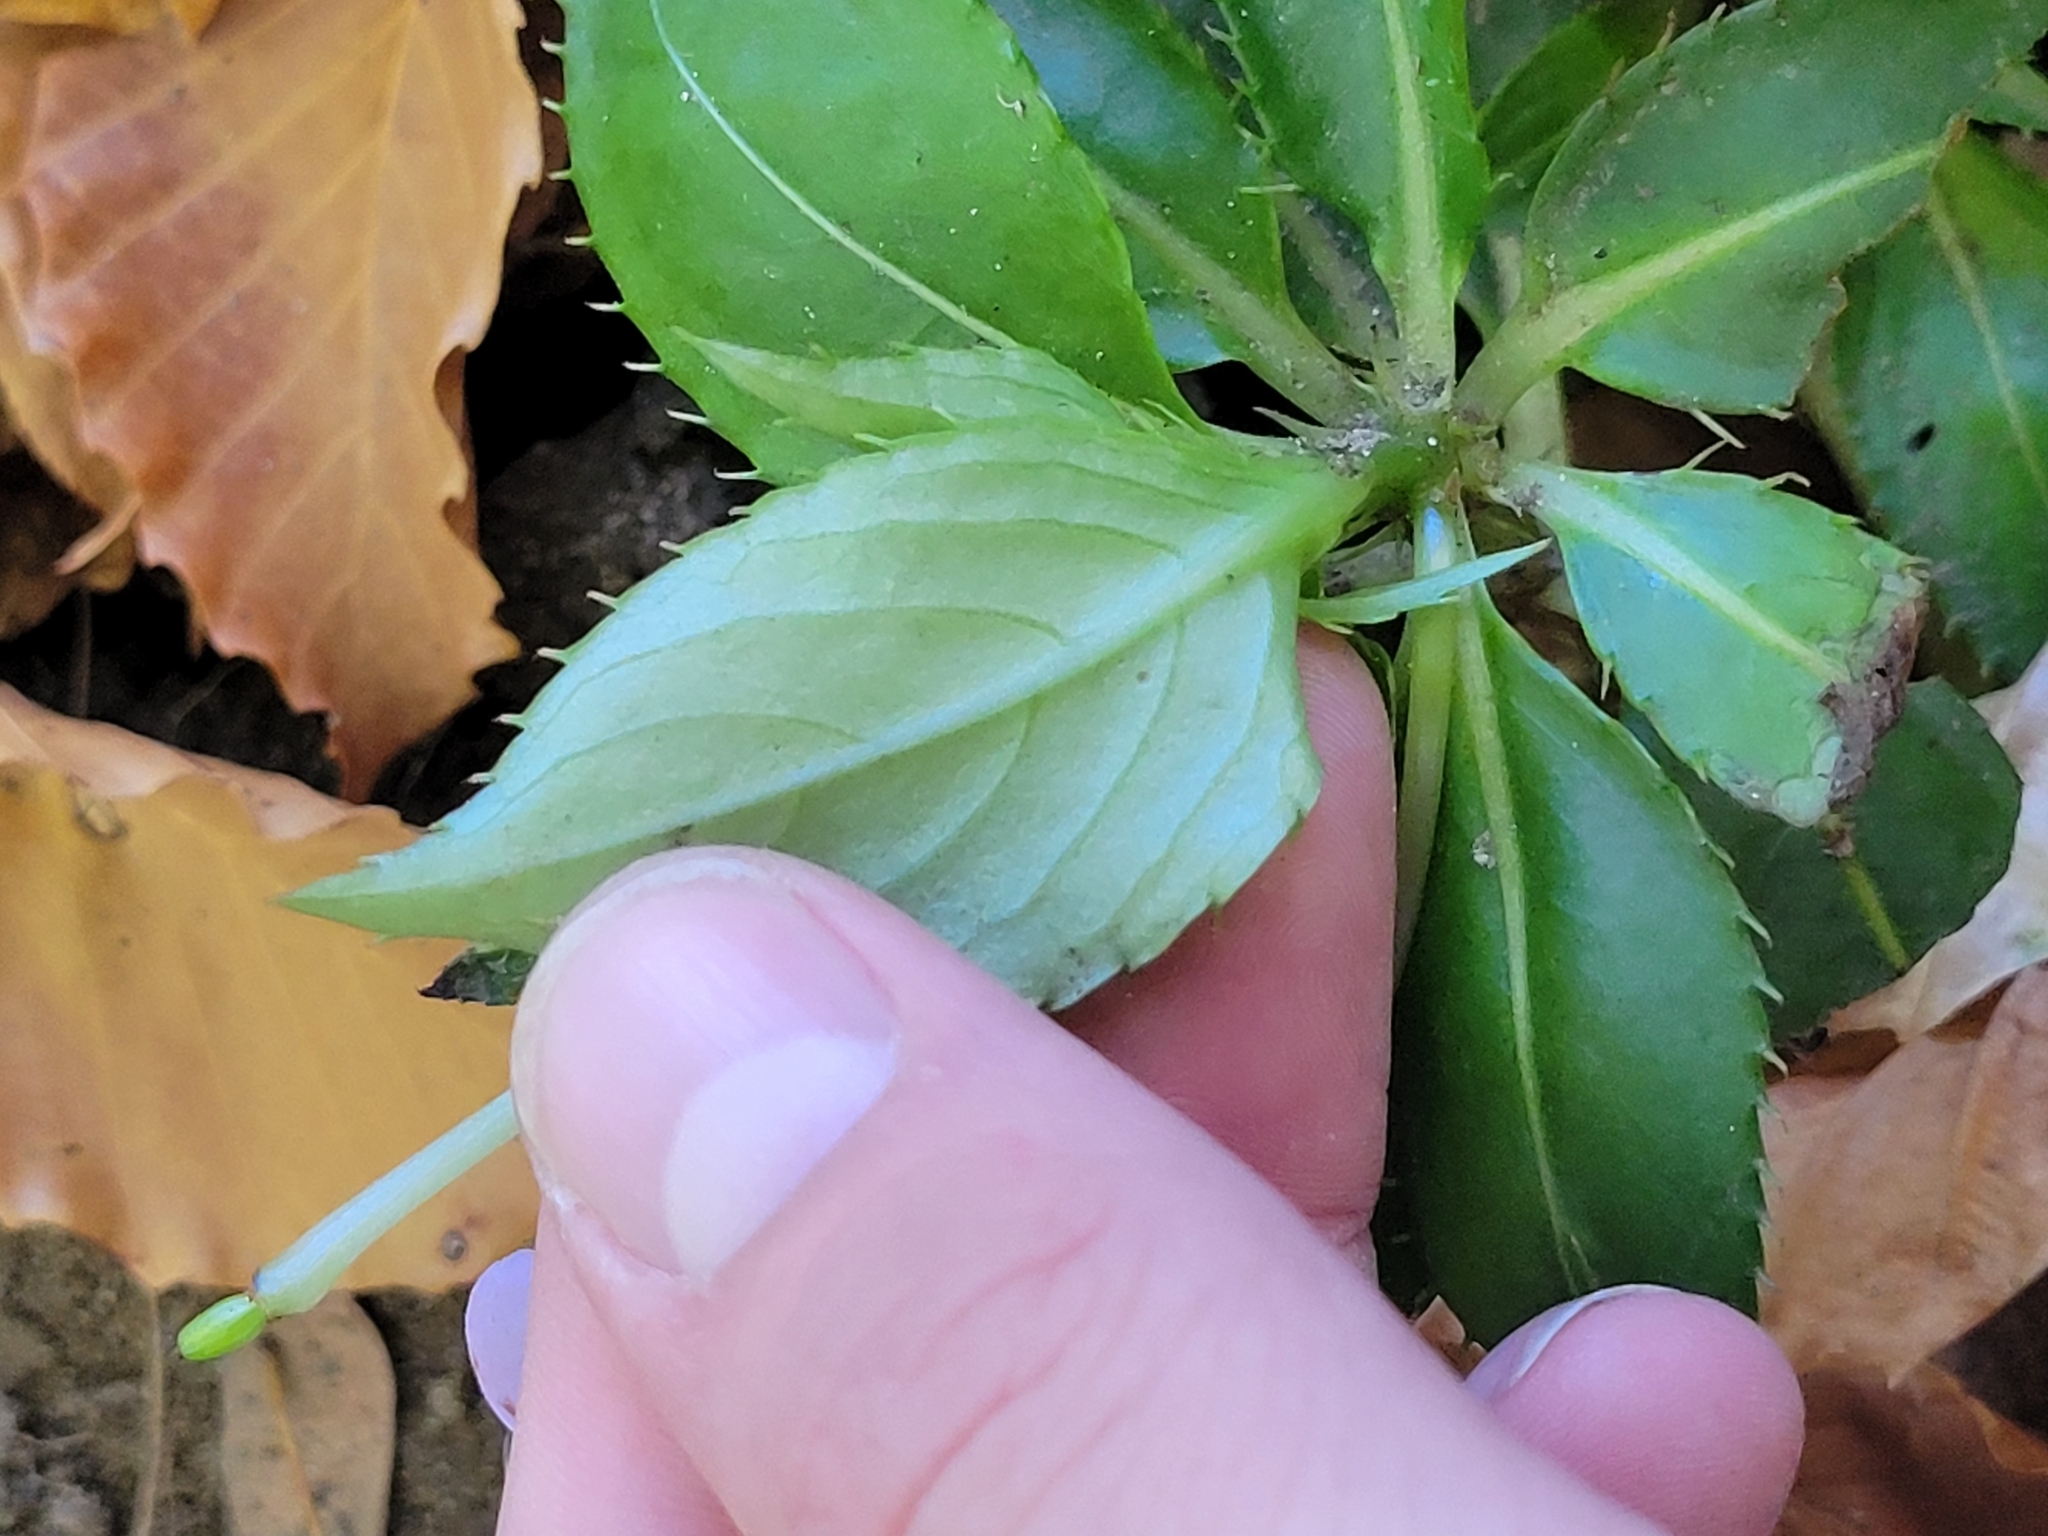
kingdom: Plantae
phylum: Tracheophyta
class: Magnoliopsida
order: Ericales
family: Balsaminaceae
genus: Impatiens
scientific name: Impatiens hawkeri
